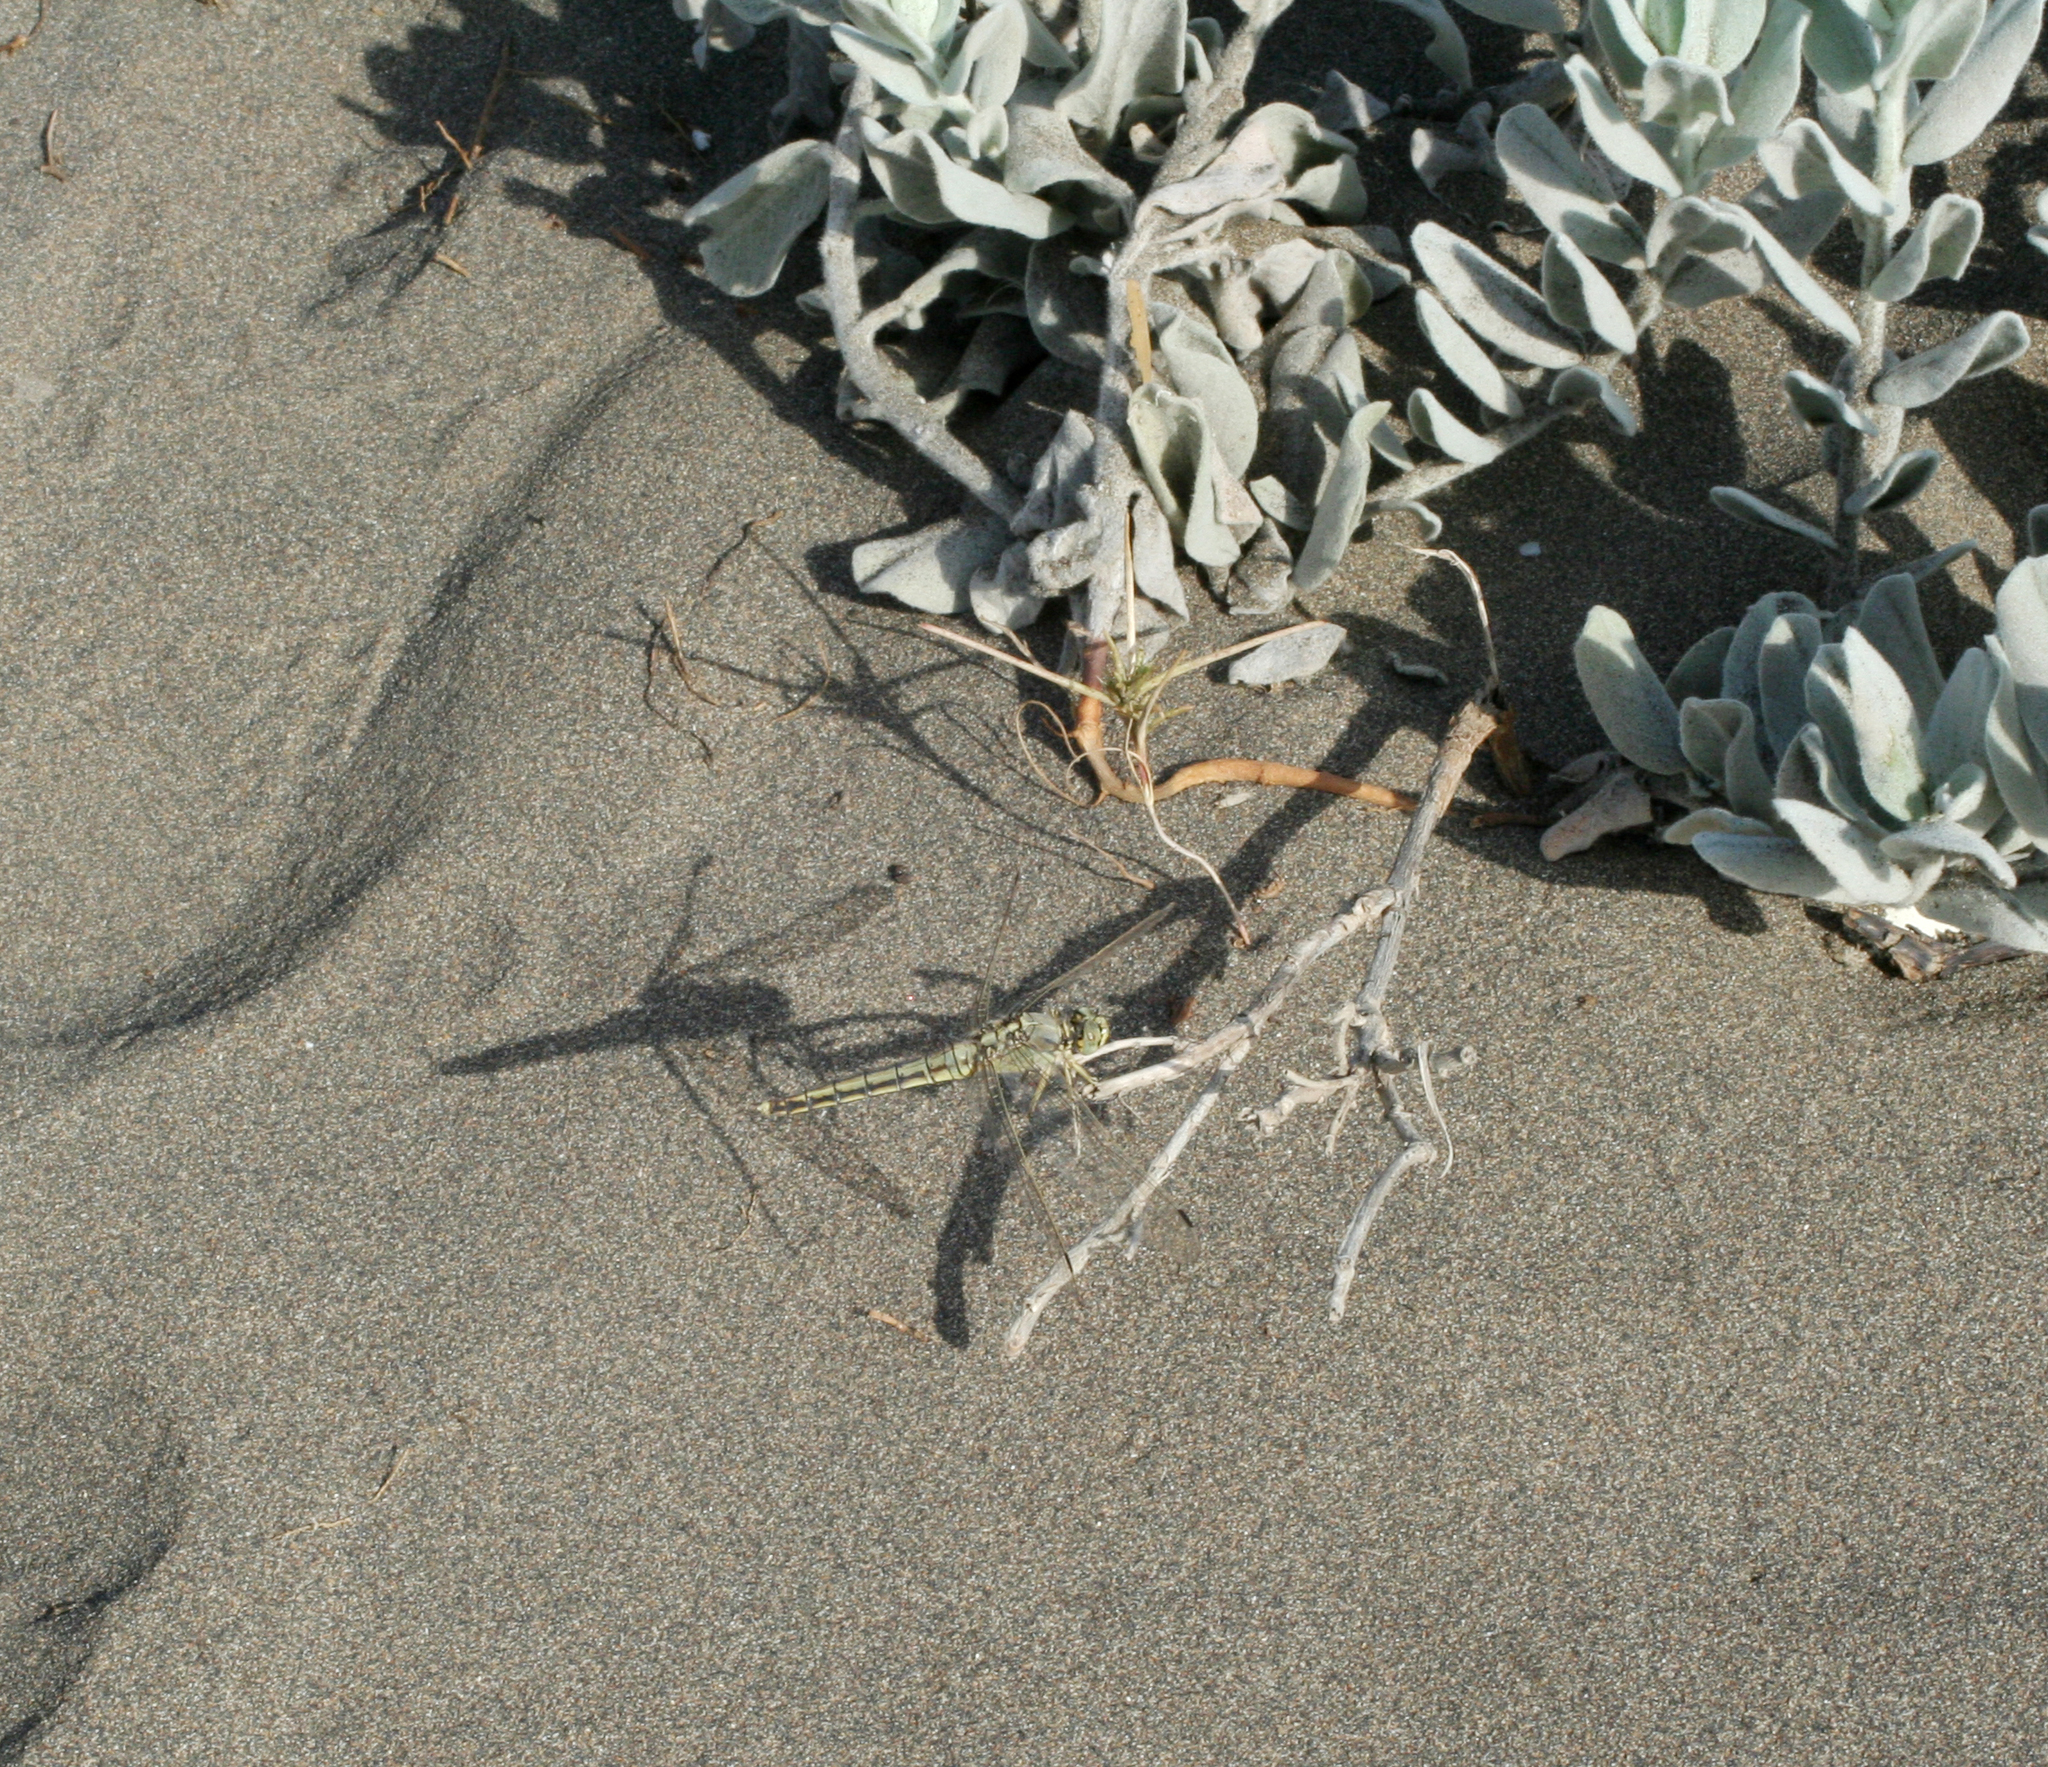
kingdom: Animalia
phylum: Arthropoda
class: Insecta
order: Odonata
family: Libellulidae
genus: Orthetrum
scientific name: Orthetrum cancellatum
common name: Black-tailed skimmer
